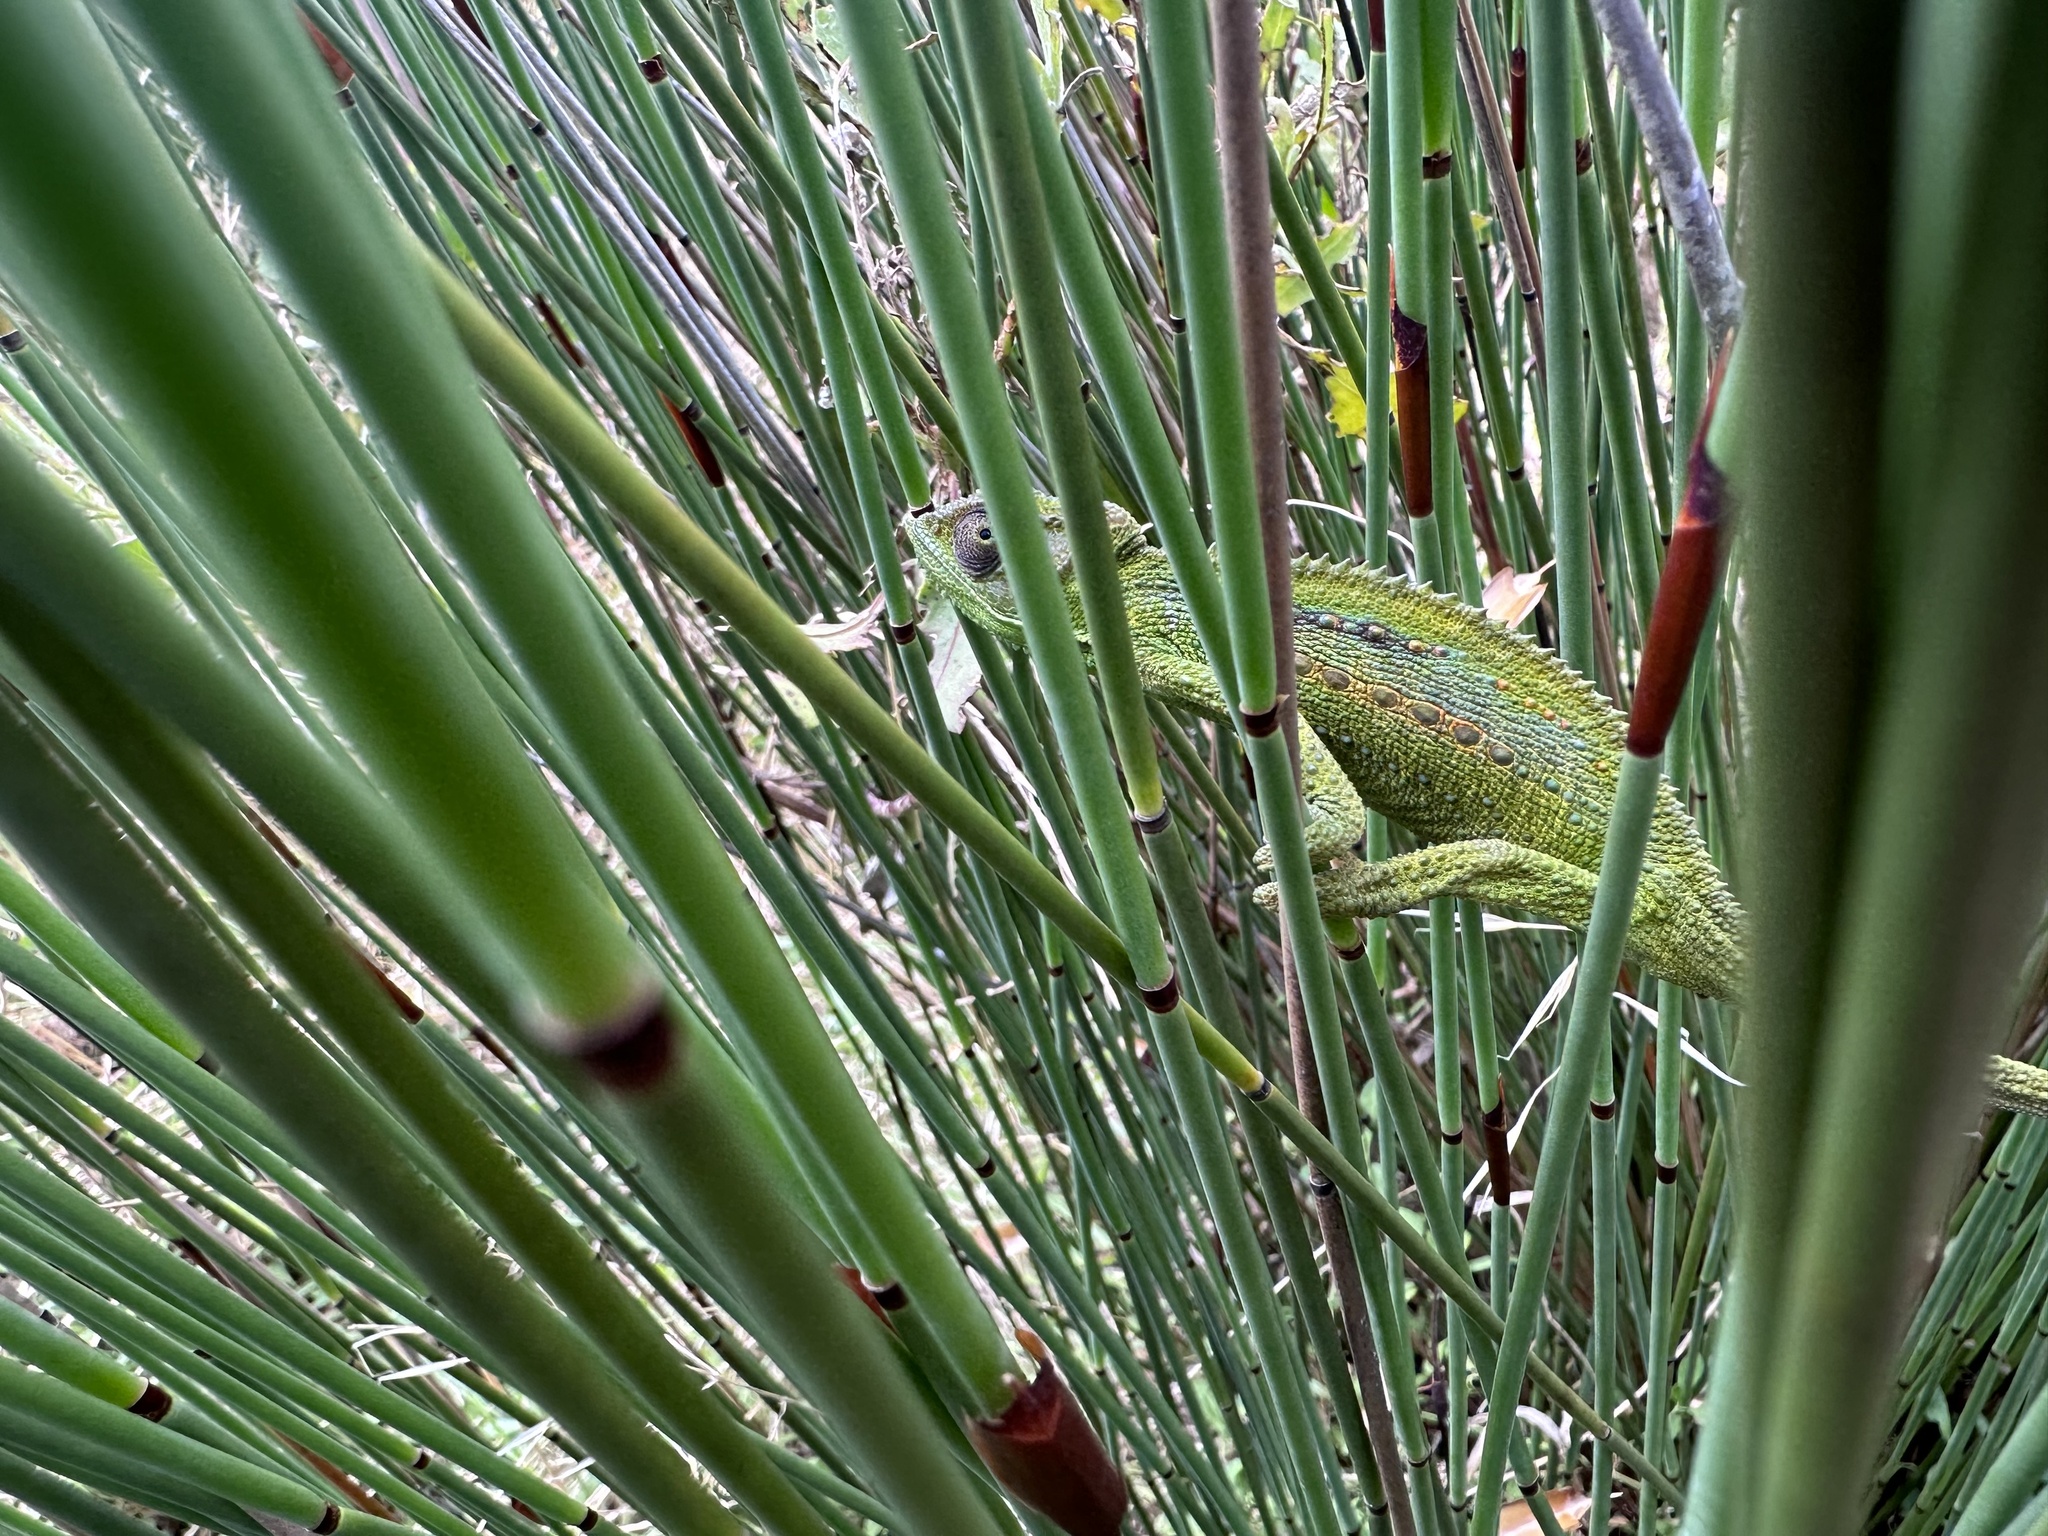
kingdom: Animalia
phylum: Chordata
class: Squamata
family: Chamaeleonidae
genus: Bradypodion
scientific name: Bradypodion pumilum
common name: Cape dwarf chameleon
